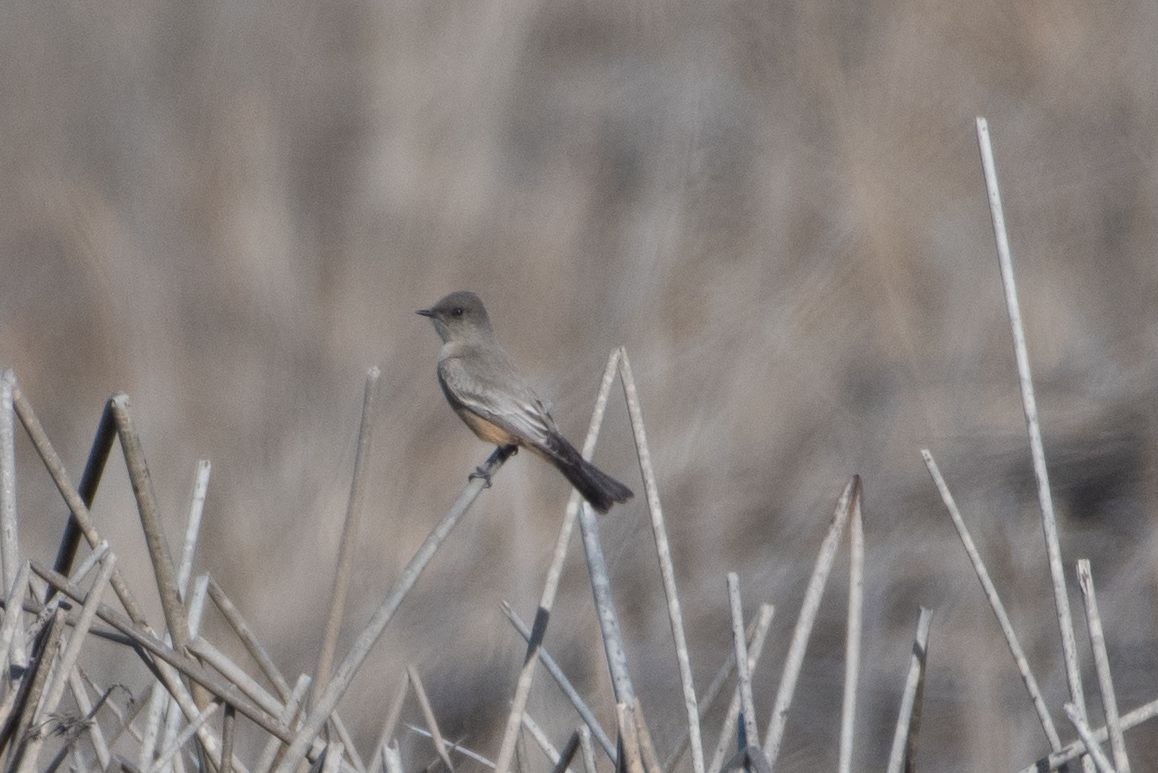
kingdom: Animalia
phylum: Chordata
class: Aves
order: Passeriformes
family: Tyrannidae
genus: Sayornis
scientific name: Sayornis saya
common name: Say's phoebe
